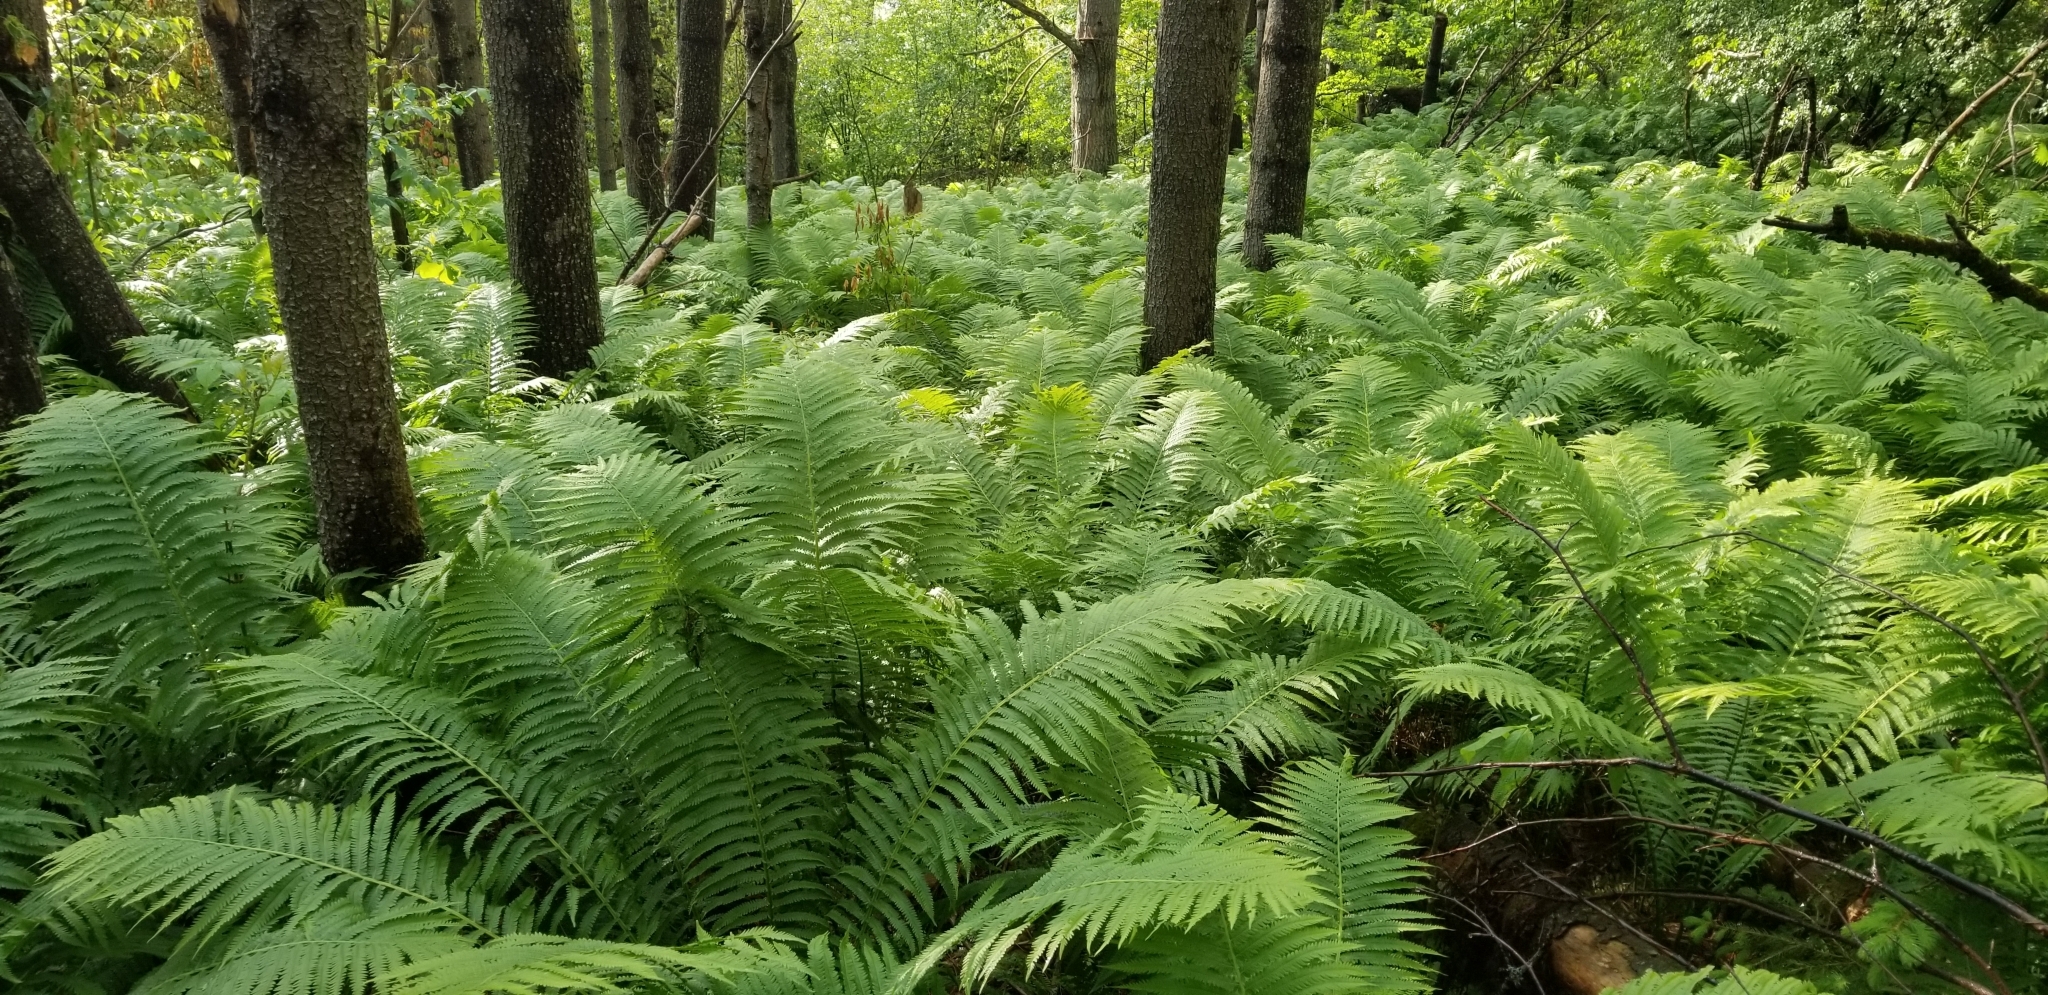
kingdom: Plantae
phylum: Tracheophyta
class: Polypodiopsida
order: Polypodiales
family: Onocleaceae
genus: Matteuccia
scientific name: Matteuccia struthiopteris
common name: Ostrich fern
